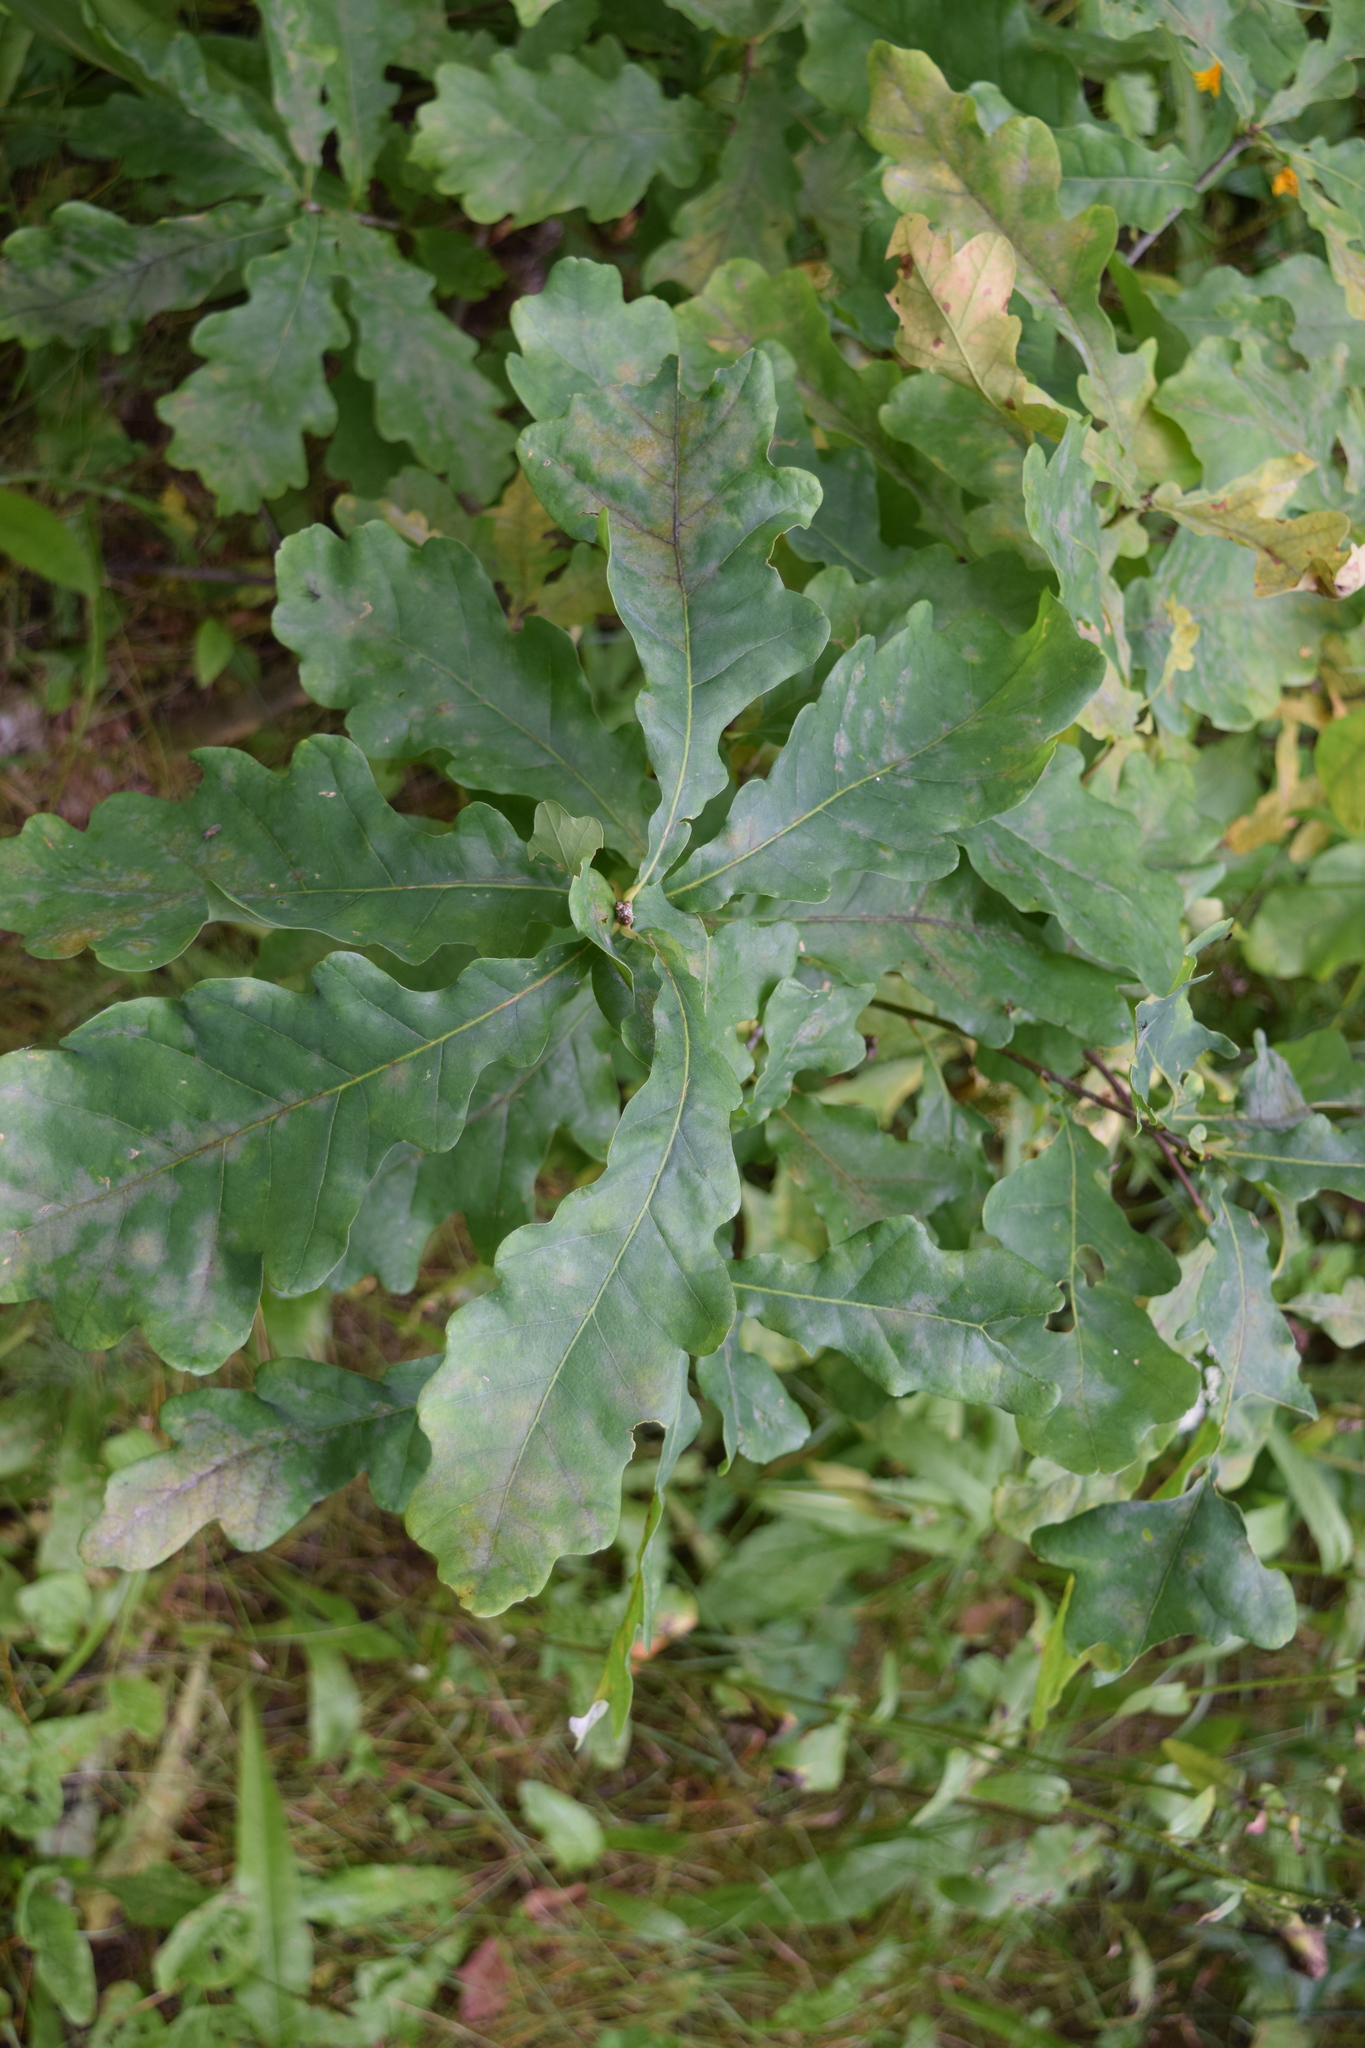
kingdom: Plantae
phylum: Tracheophyta
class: Magnoliopsida
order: Fagales
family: Fagaceae
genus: Quercus
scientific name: Quercus robur
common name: Pedunculate oak
